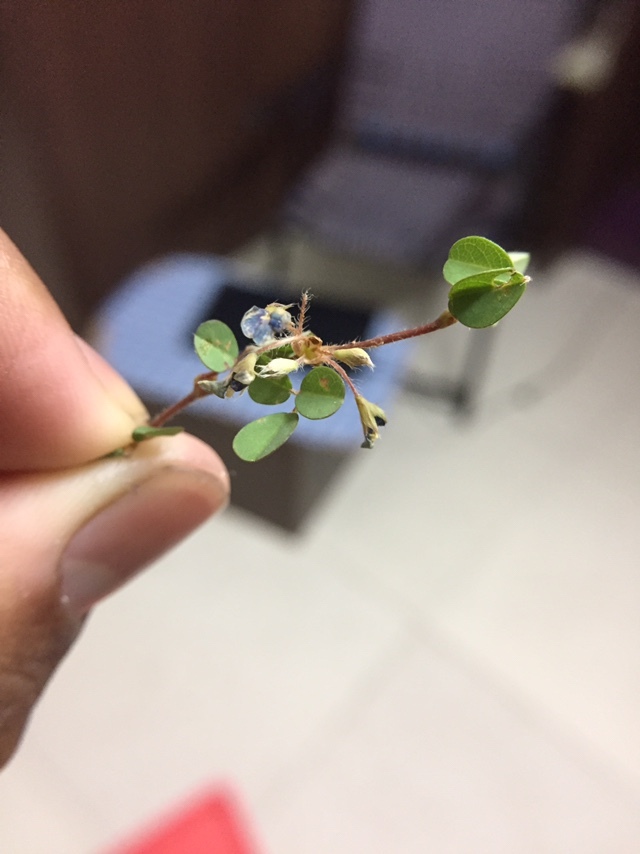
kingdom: Plantae
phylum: Tracheophyta
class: Magnoliopsida
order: Fabales
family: Fabaceae
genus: Grona
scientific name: Grona triflora
